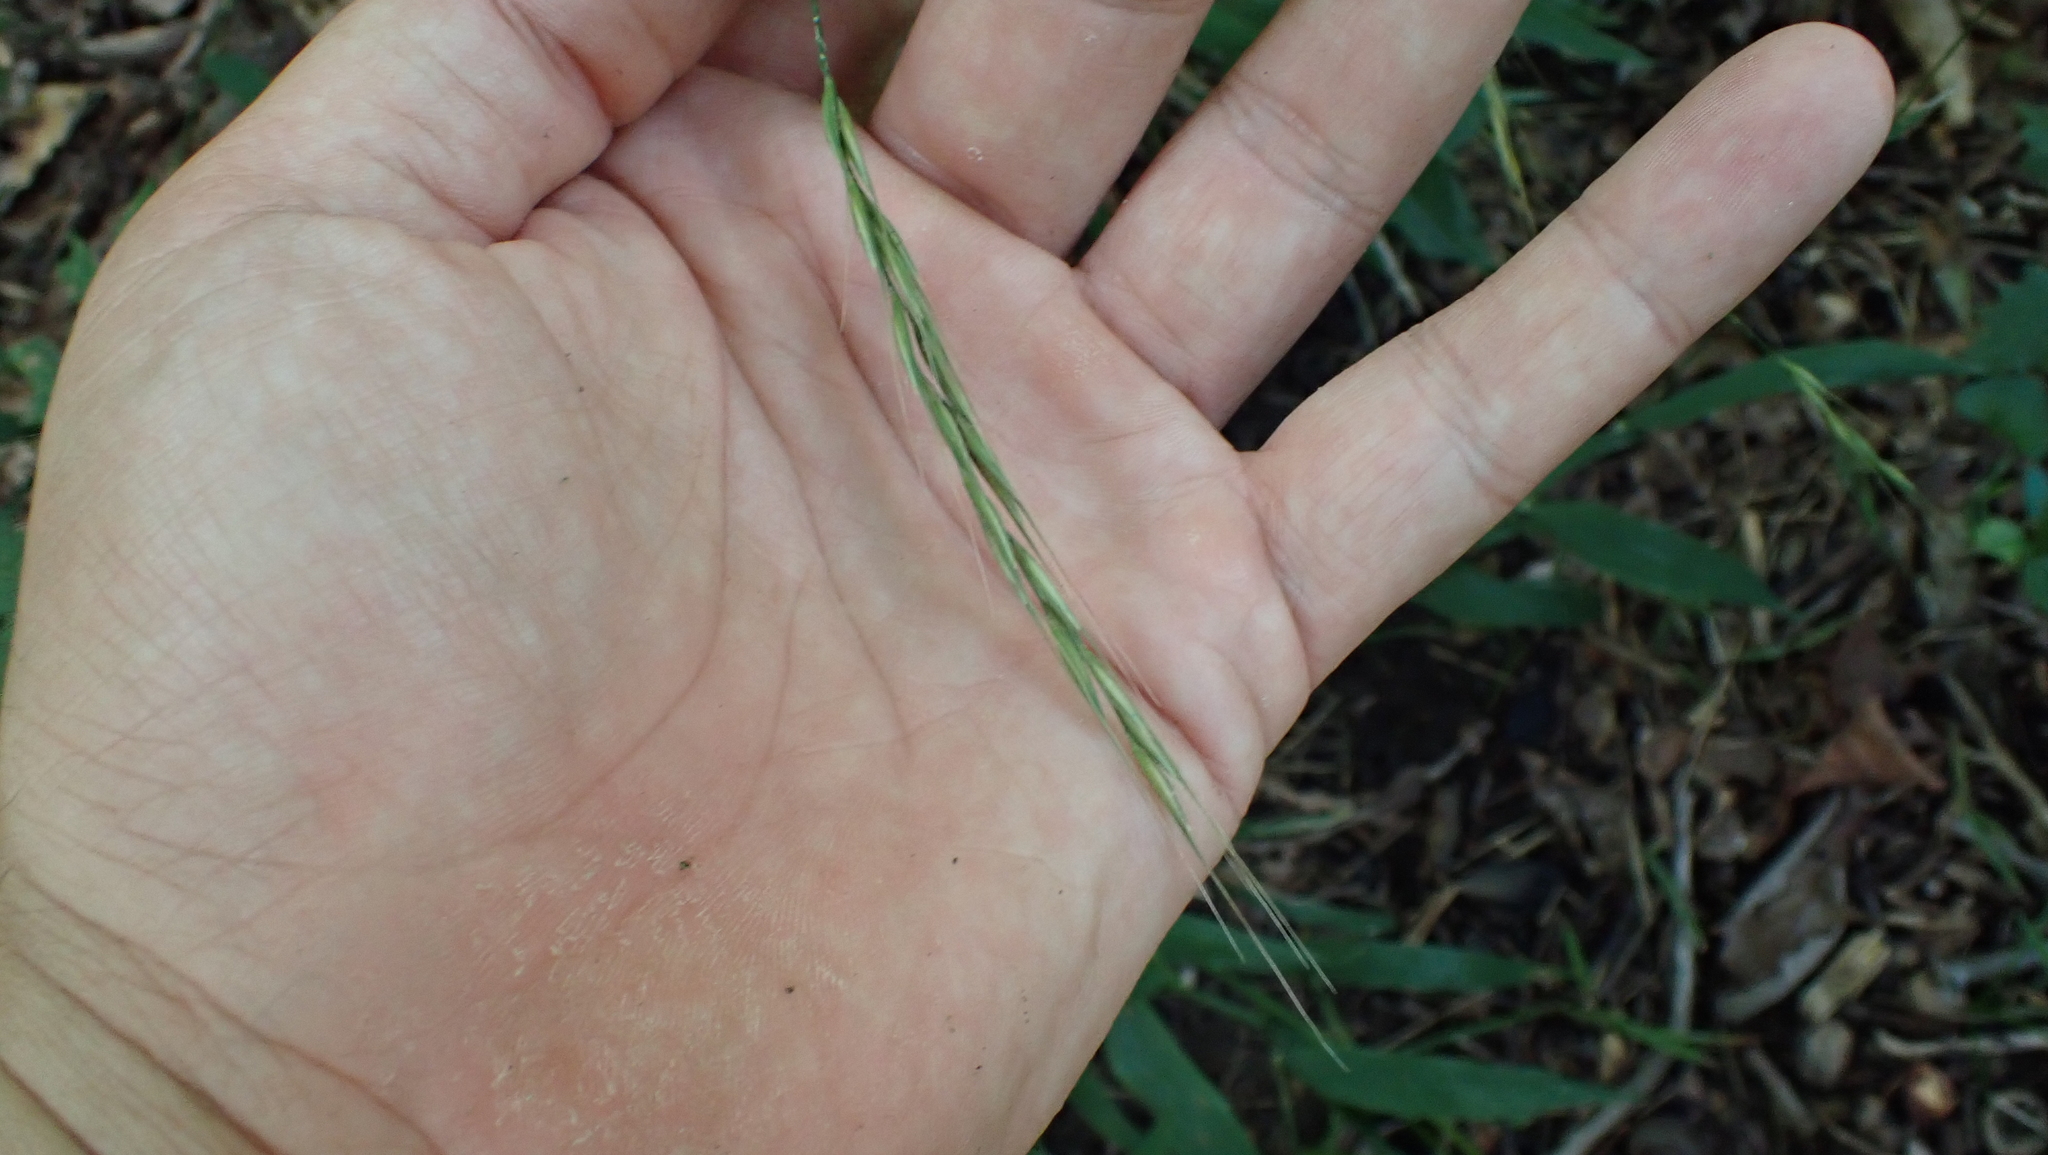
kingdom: Plantae
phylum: Tracheophyta
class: Liliopsida
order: Poales
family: Poaceae
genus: Brachyelytrum
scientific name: Brachyelytrum erectum
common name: Bearded shorthusk
